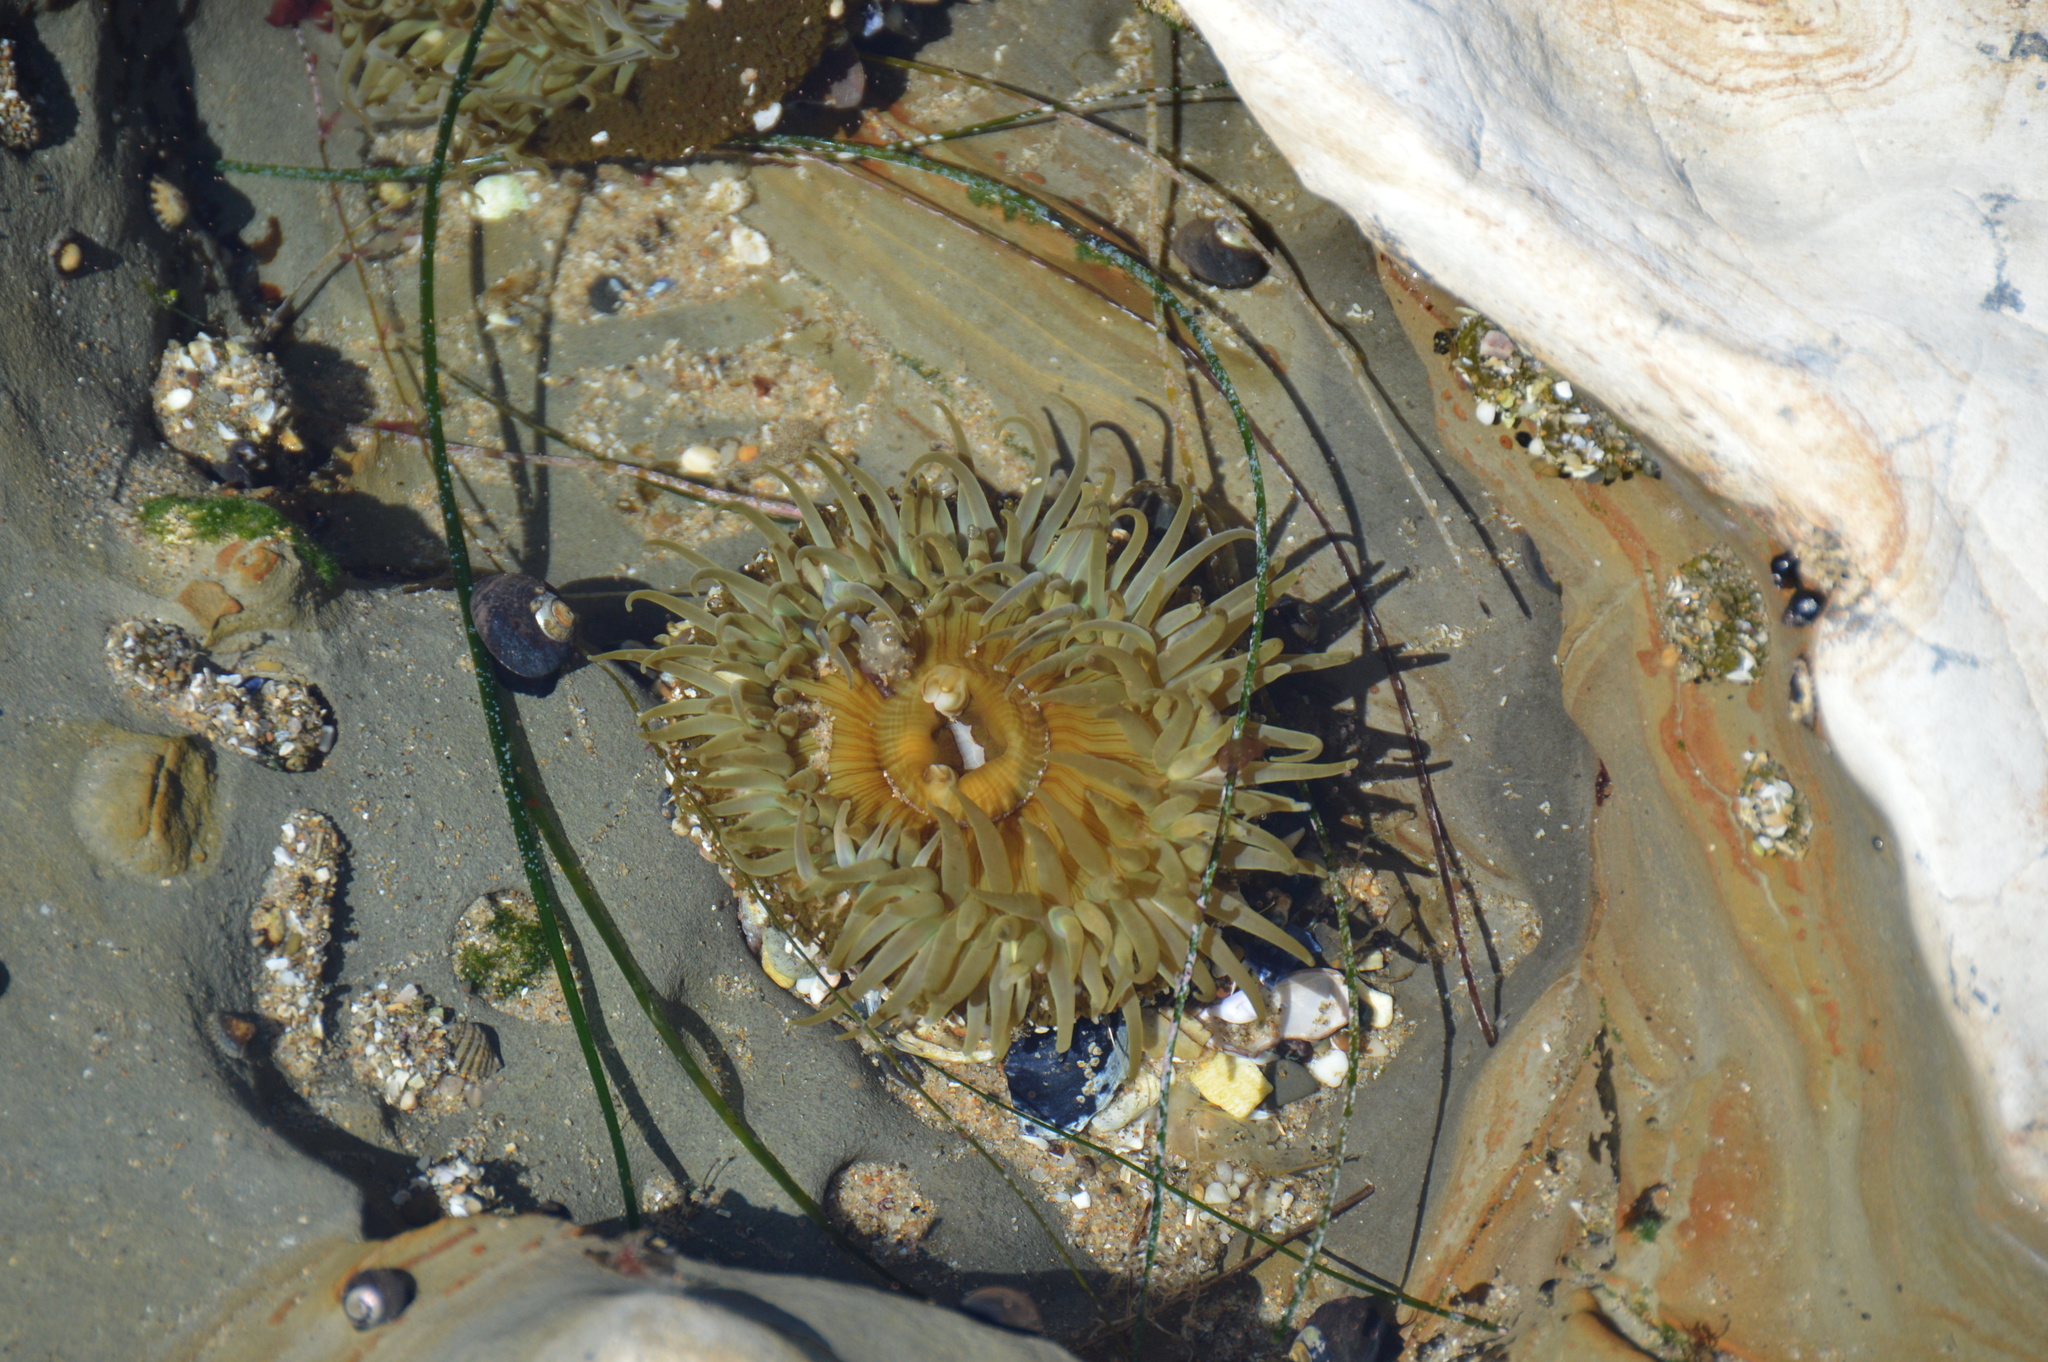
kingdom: Animalia
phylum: Cnidaria
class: Anthozoa
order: Actiniaria
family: Actiniidae
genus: Anthopleura
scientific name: Anthopleura sola
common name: Sun anemone
